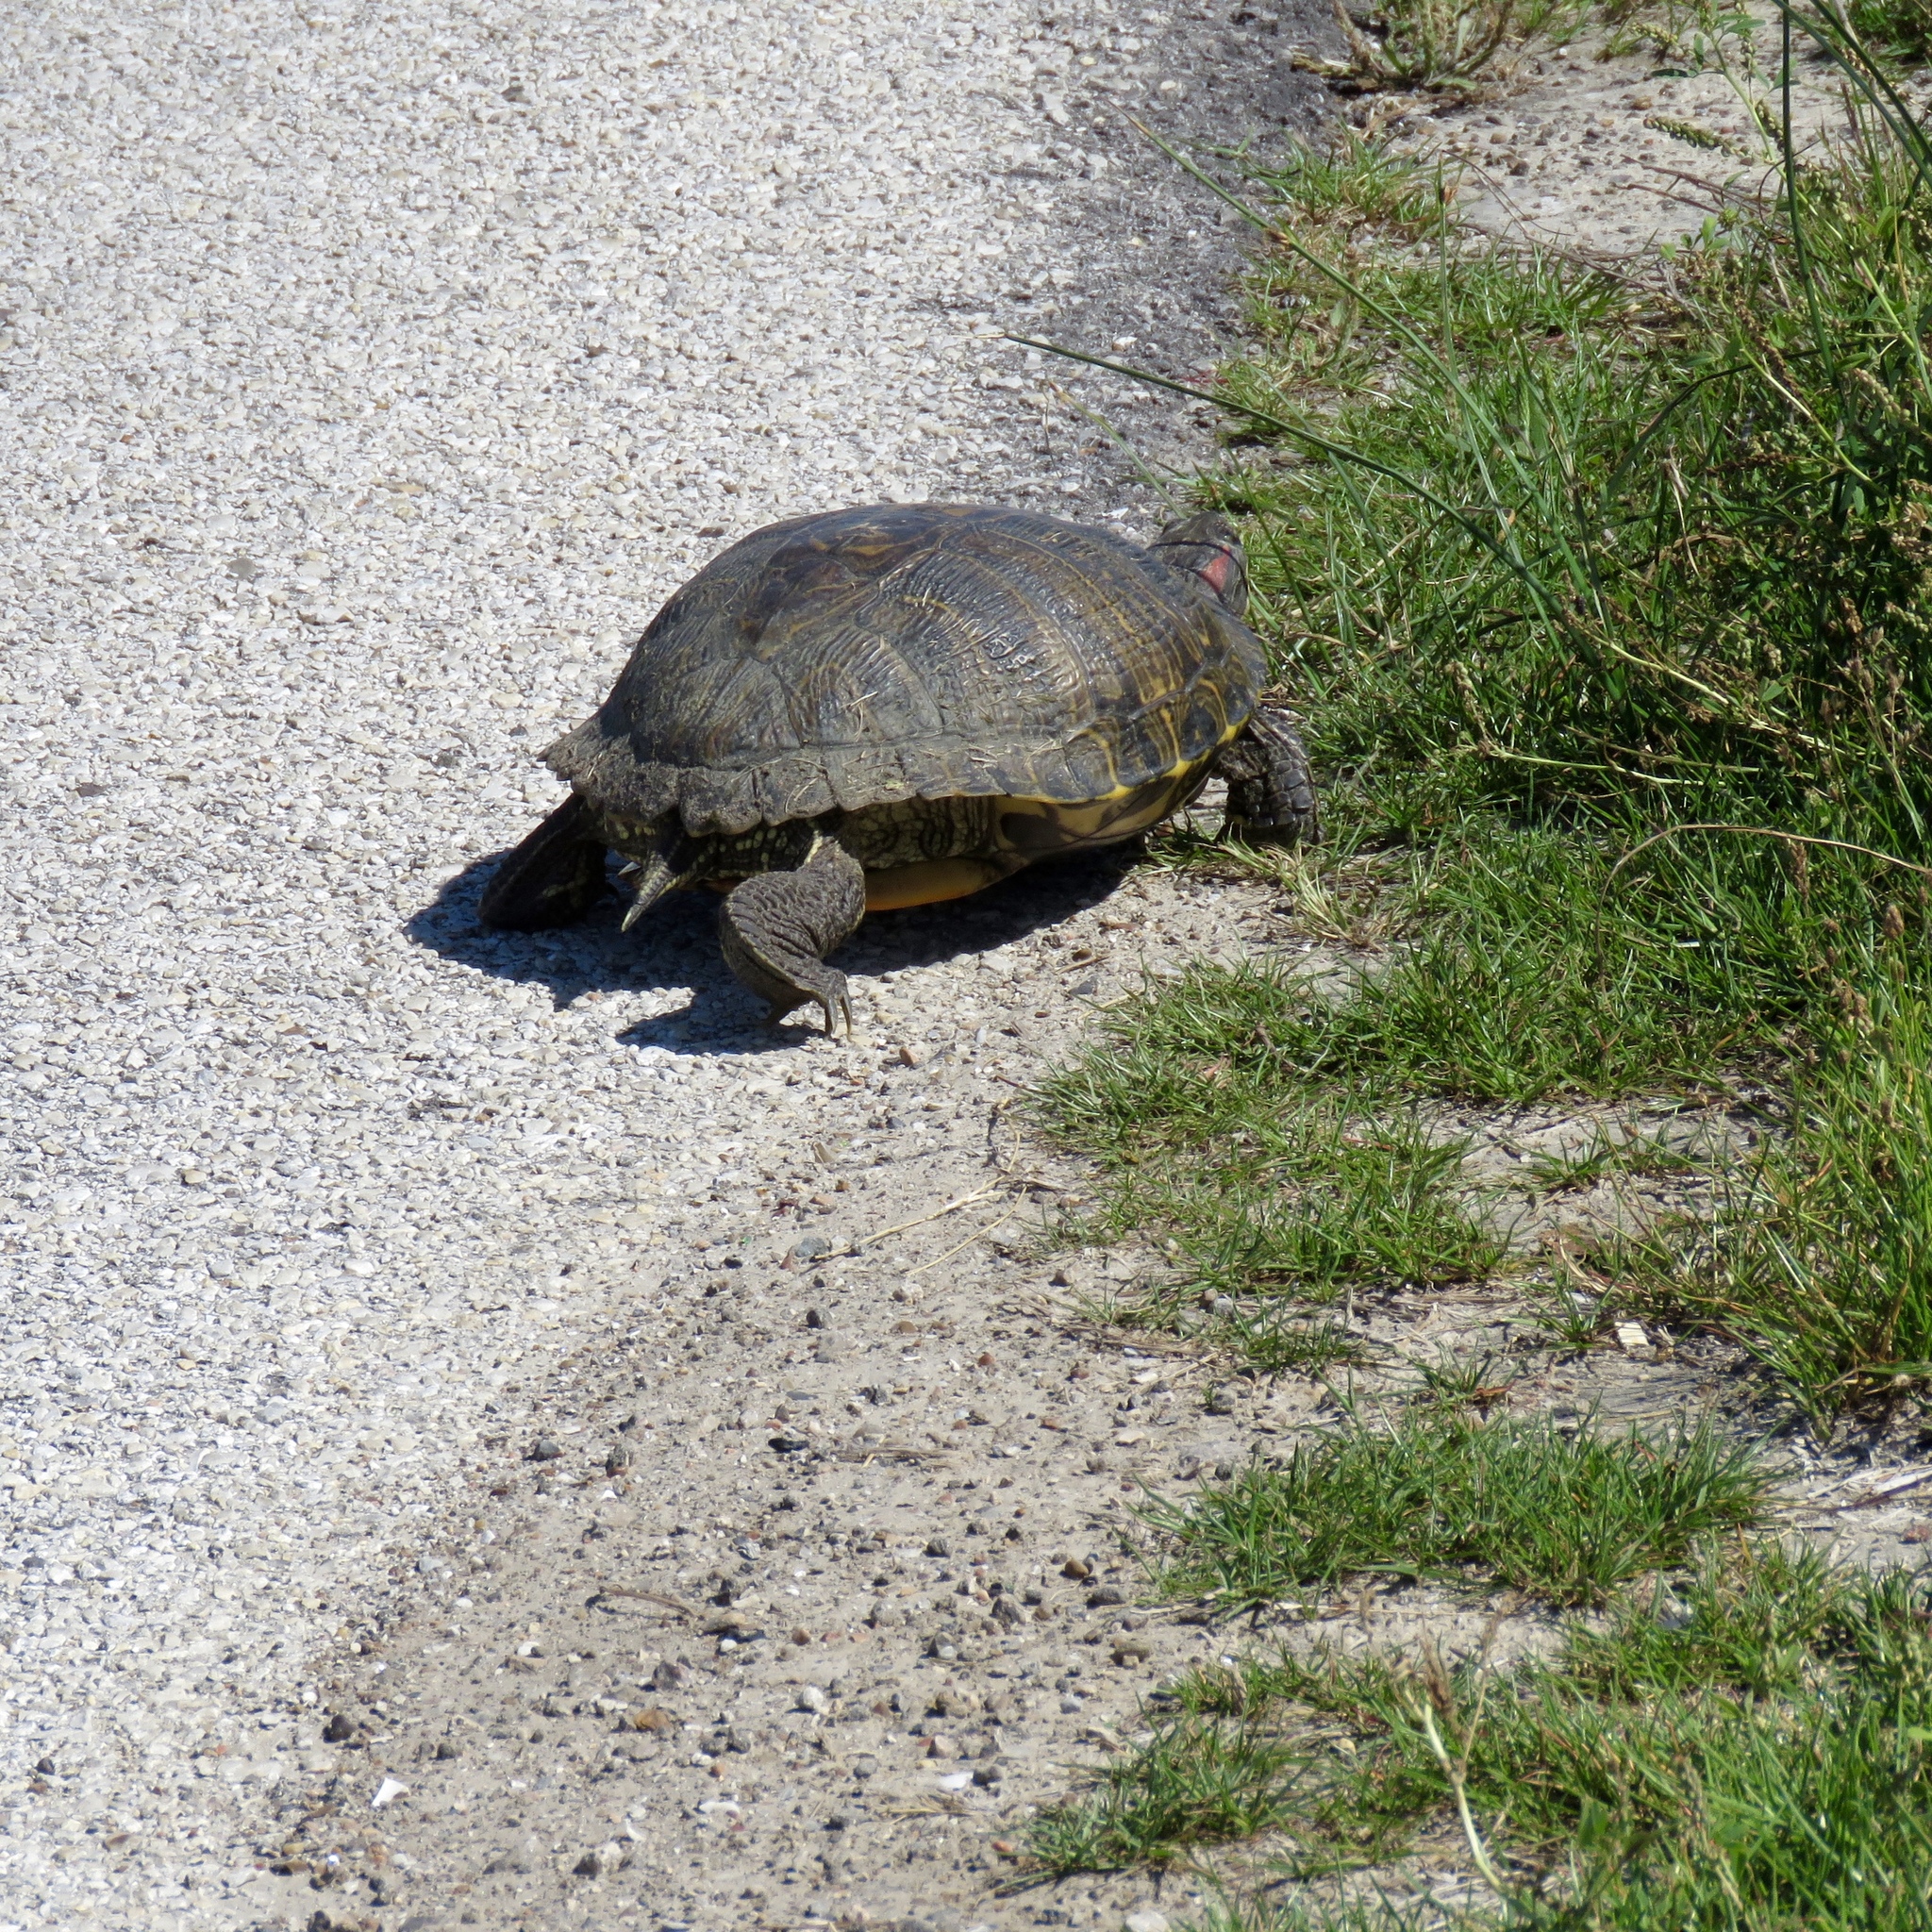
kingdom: Animalia
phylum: Chordata
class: Testudines
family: Emydidae
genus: Trachemys
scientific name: Trachemys scripta
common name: Slider
